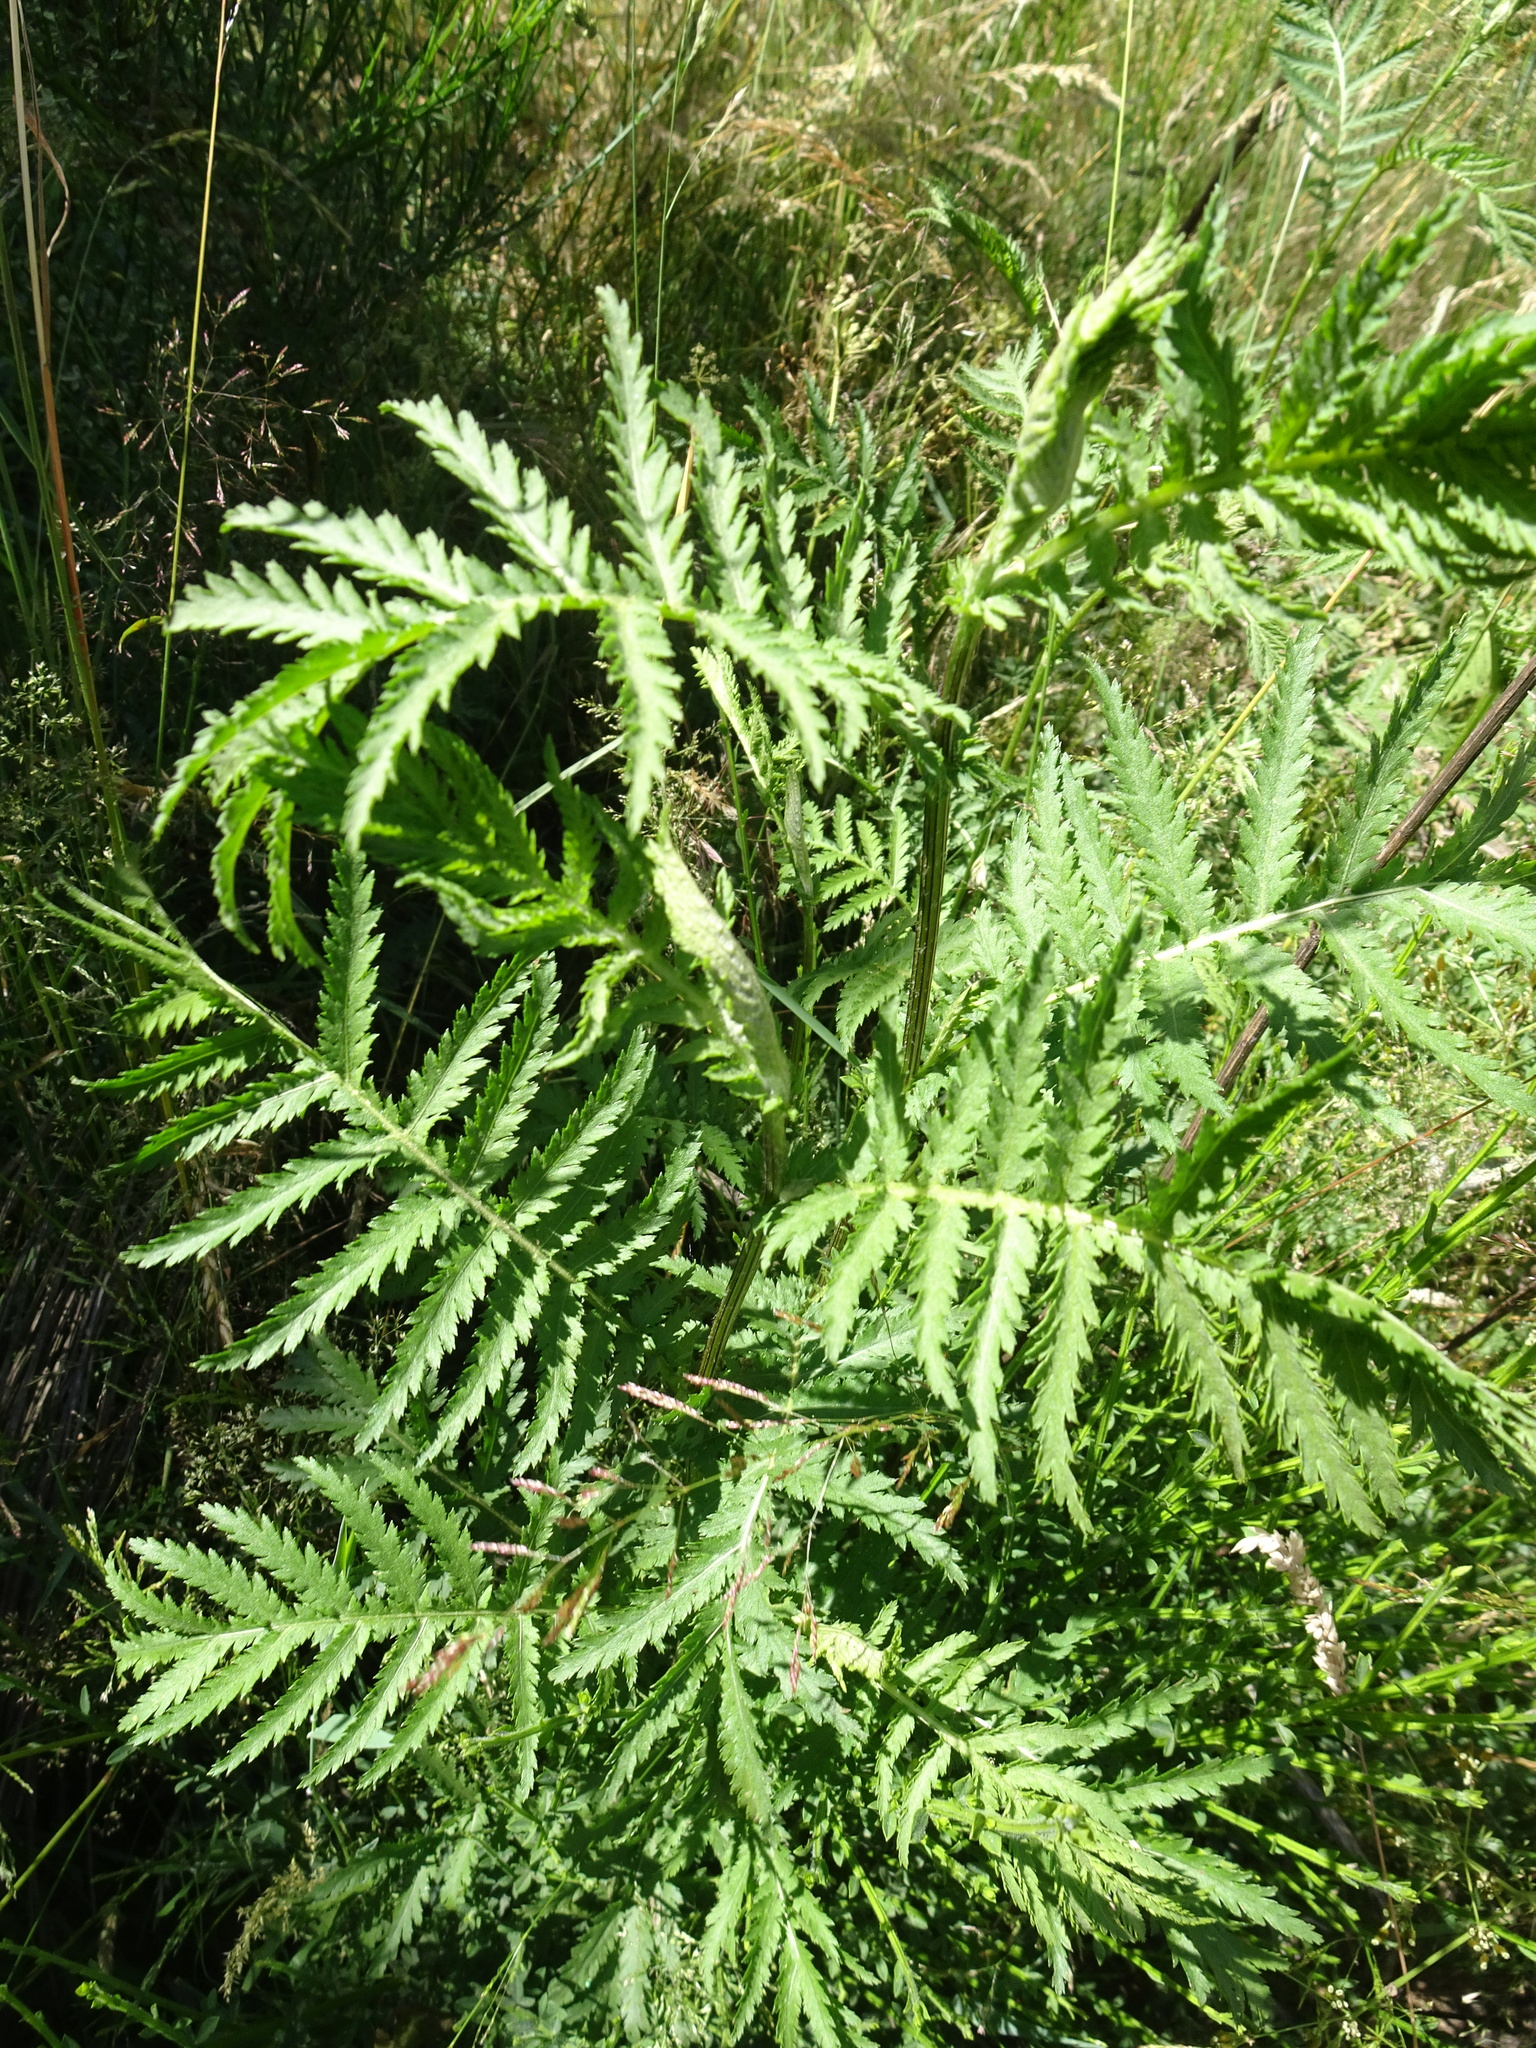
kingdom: Plantae
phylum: Tracheophyta
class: Magnoliopsida
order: Asterales
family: Asteraceae
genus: Tanacetum
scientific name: Tanacetum vulgare
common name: Common tansy
